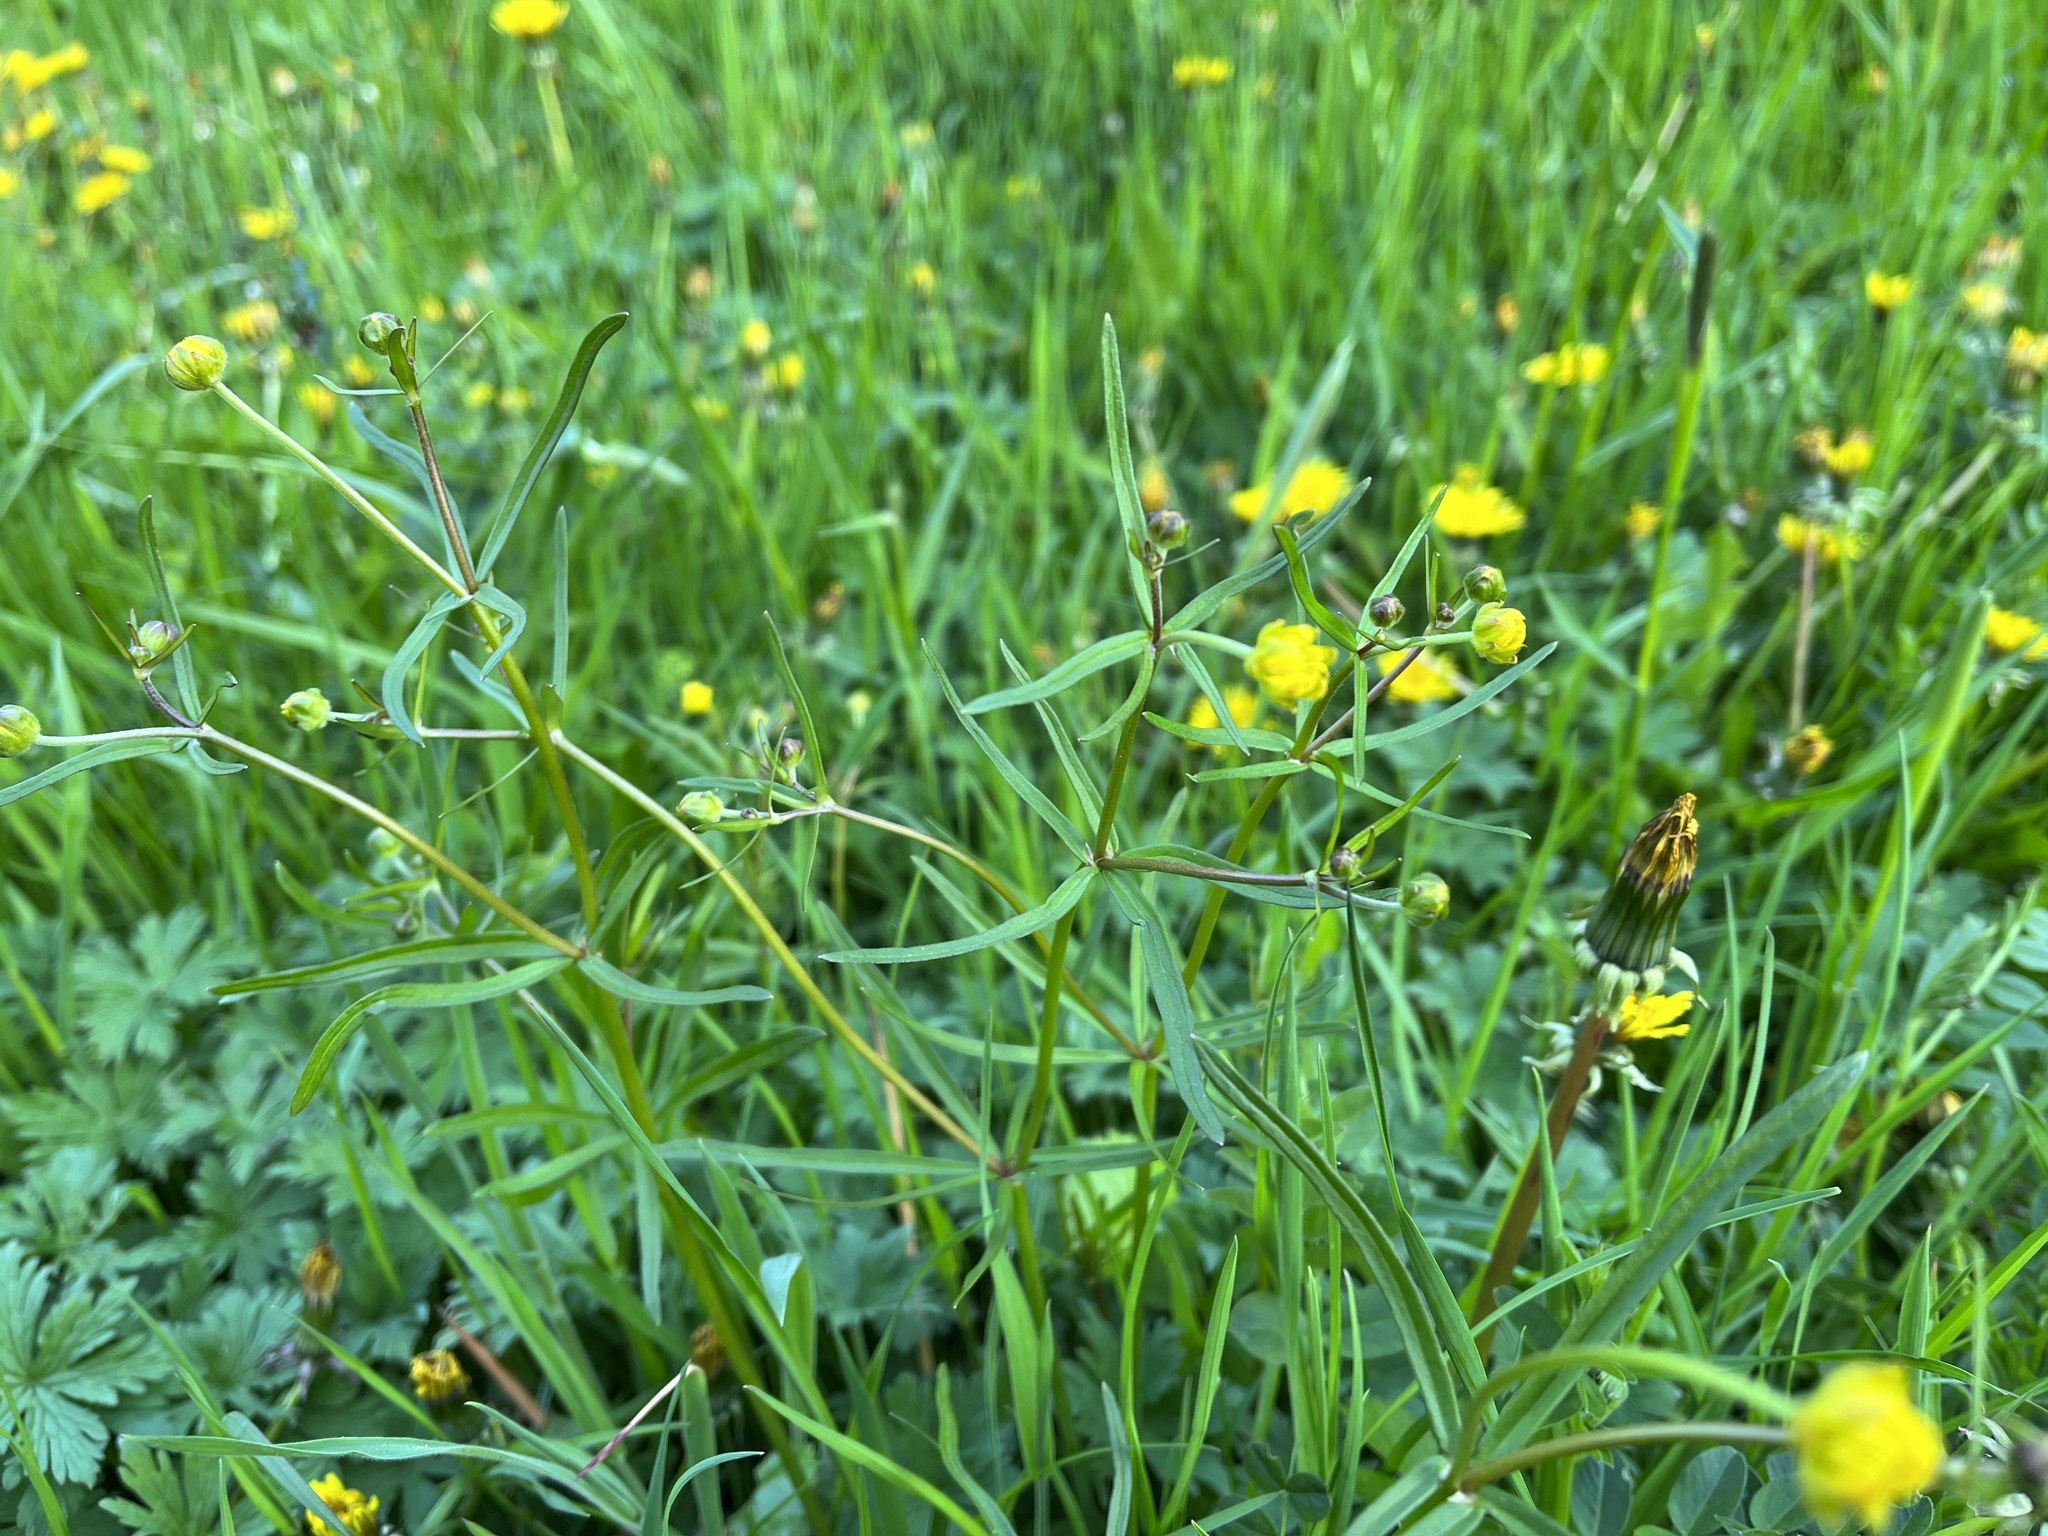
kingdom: Plantae
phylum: Tracheophyta
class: Magnoliopsida
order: Ranunculales
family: Ranunculaceae
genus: Ranunculus
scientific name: Ranunculus auricomus
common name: Goldilocks buttercup
